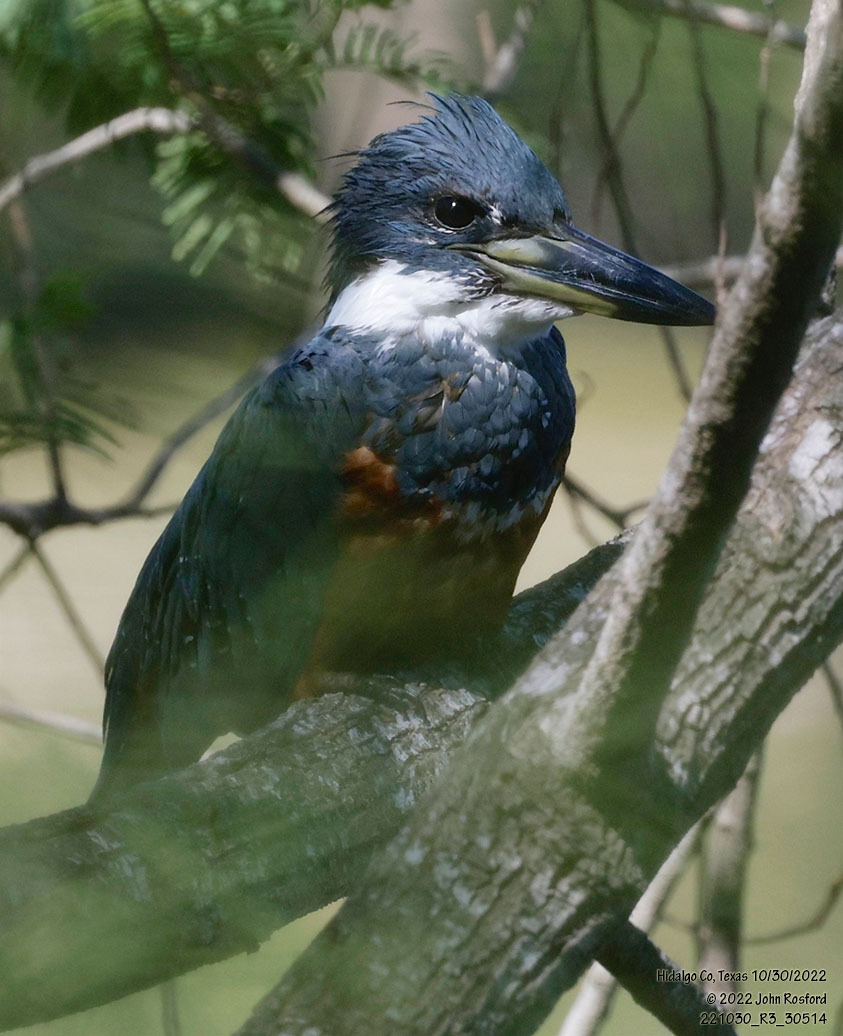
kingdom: Animalia
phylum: Chordata
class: Aves
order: Coraciiformes
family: Alcedinidae
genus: Megaceryle
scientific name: Megaceryle torquata
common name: Ringed kingfisher
